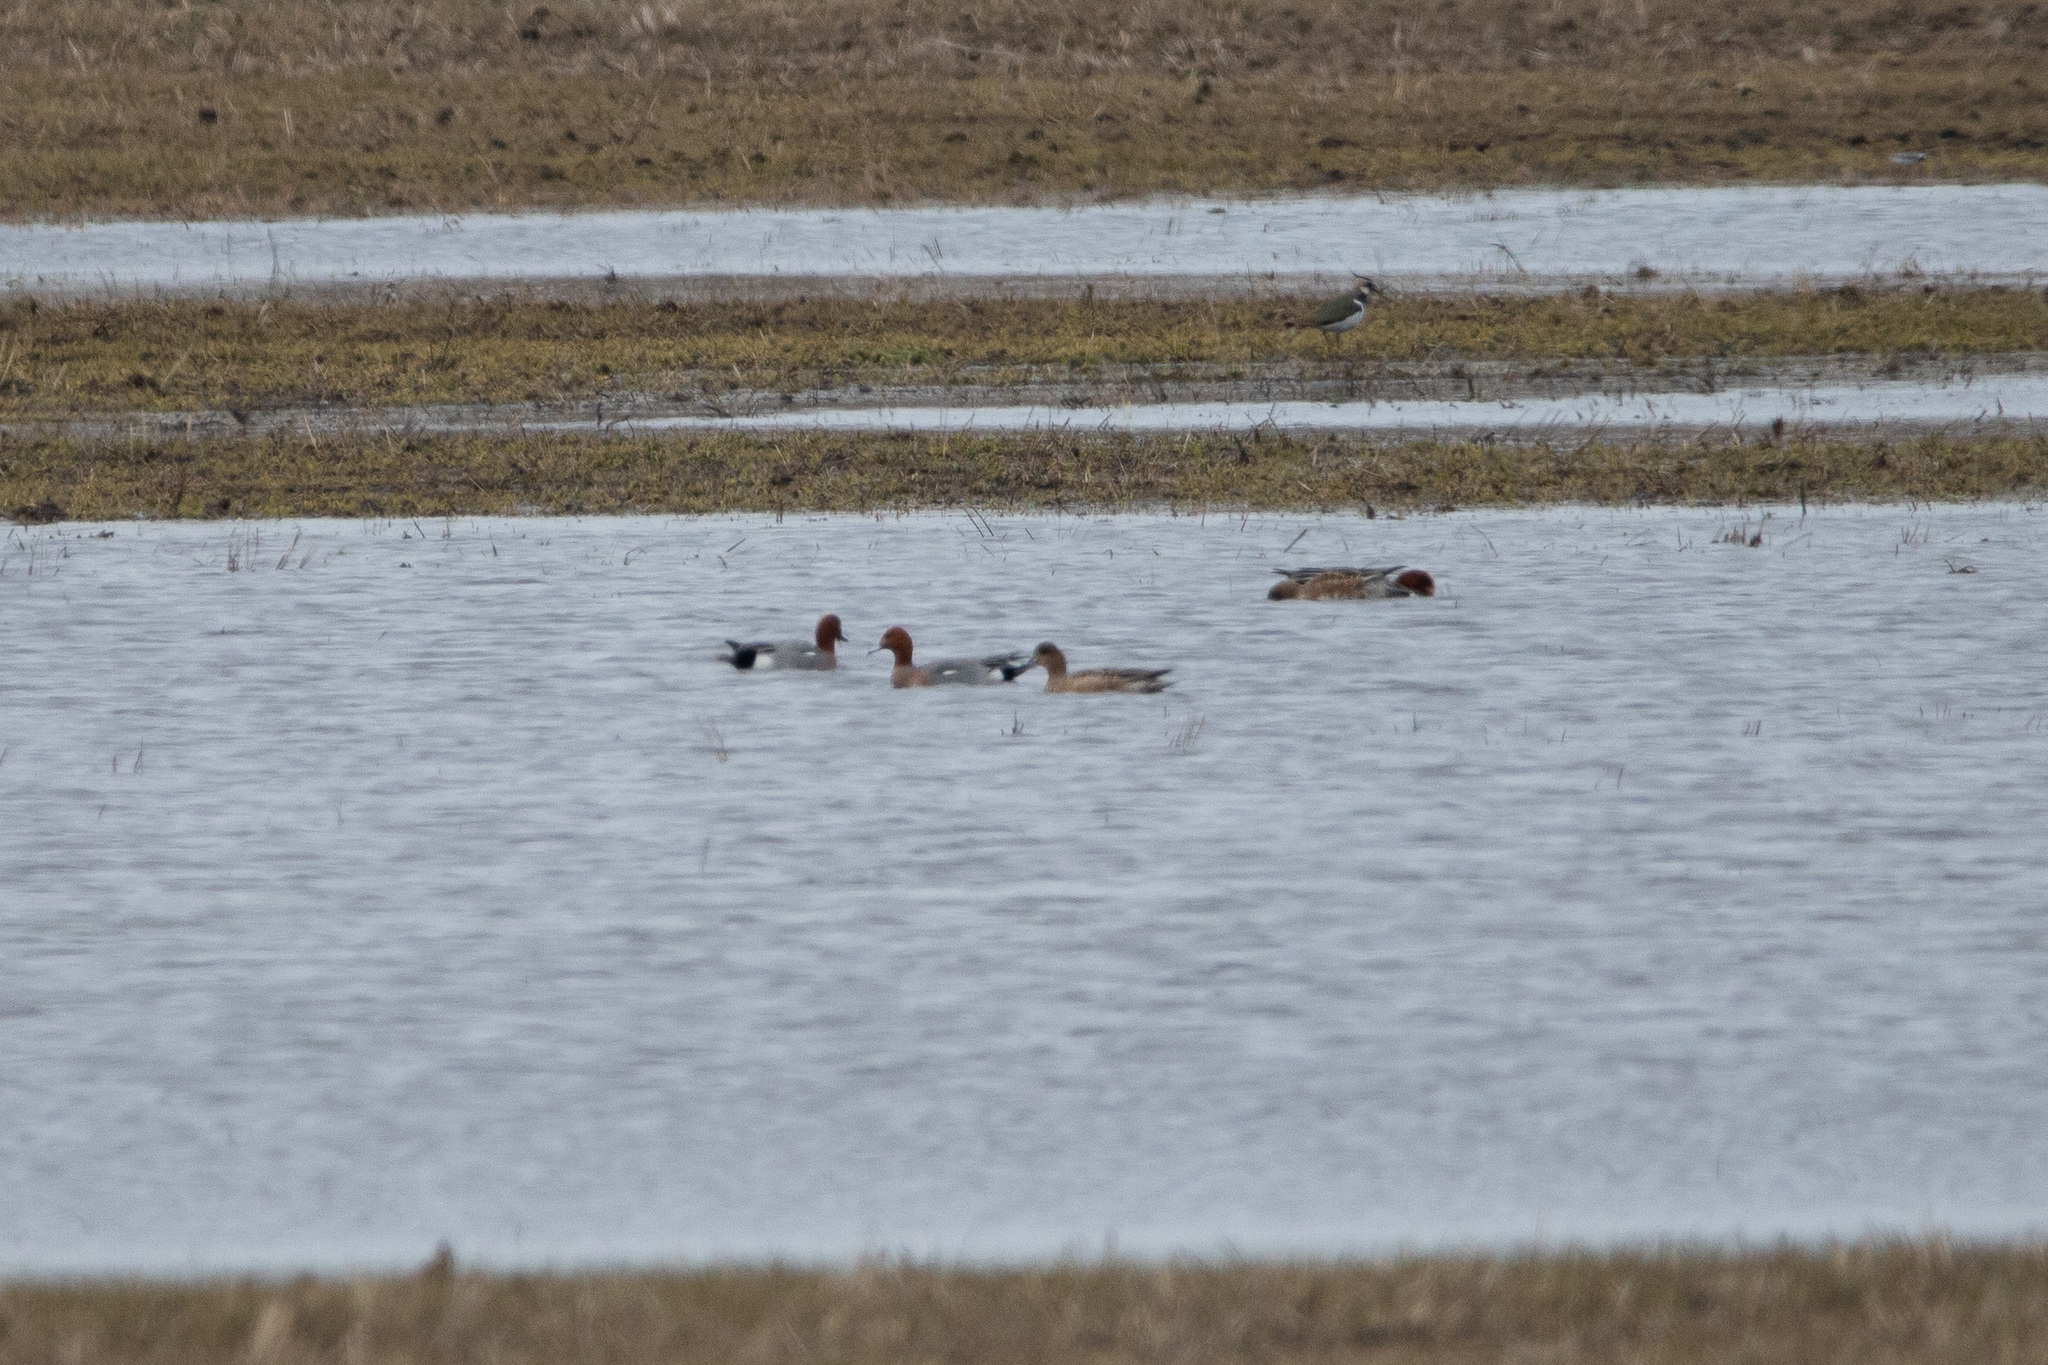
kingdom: Animalia
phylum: Chordata
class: Aves
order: Anseriformes
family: Anatidae
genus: Mareca
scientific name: Mareca penelope
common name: Eurasian wigeon
